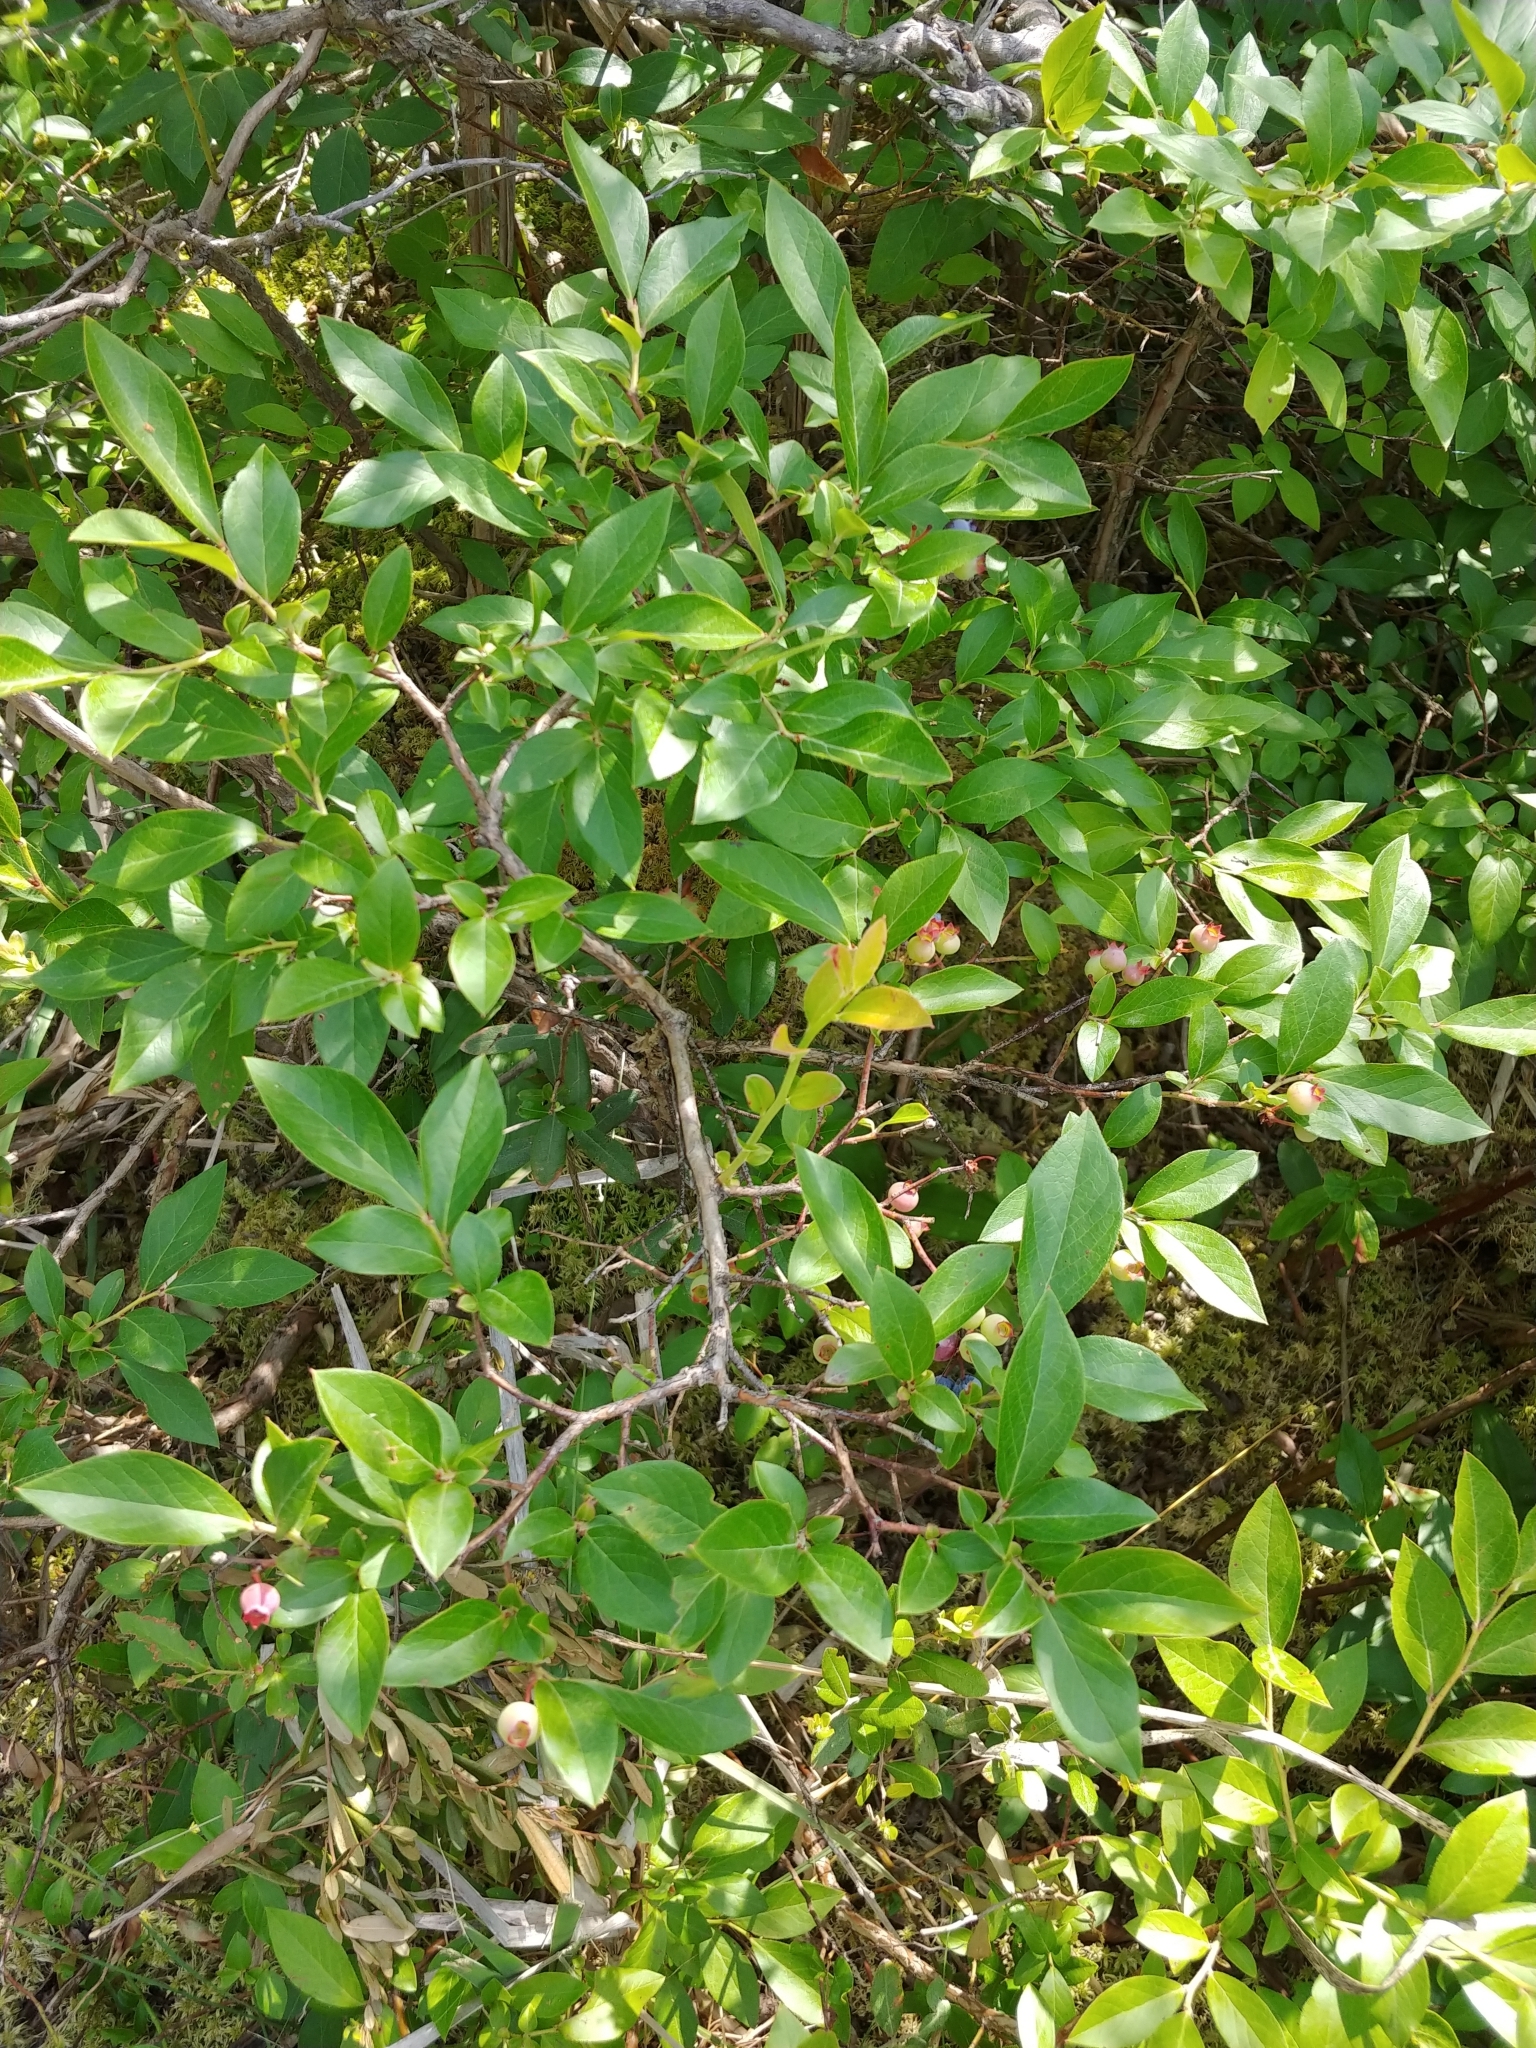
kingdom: Plantae
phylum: Tracheophyta
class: Magnoliopsida
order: Ericales
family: Ericaceae
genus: Vaccinium
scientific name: Vaccinium corymbosum
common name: Blueberry
